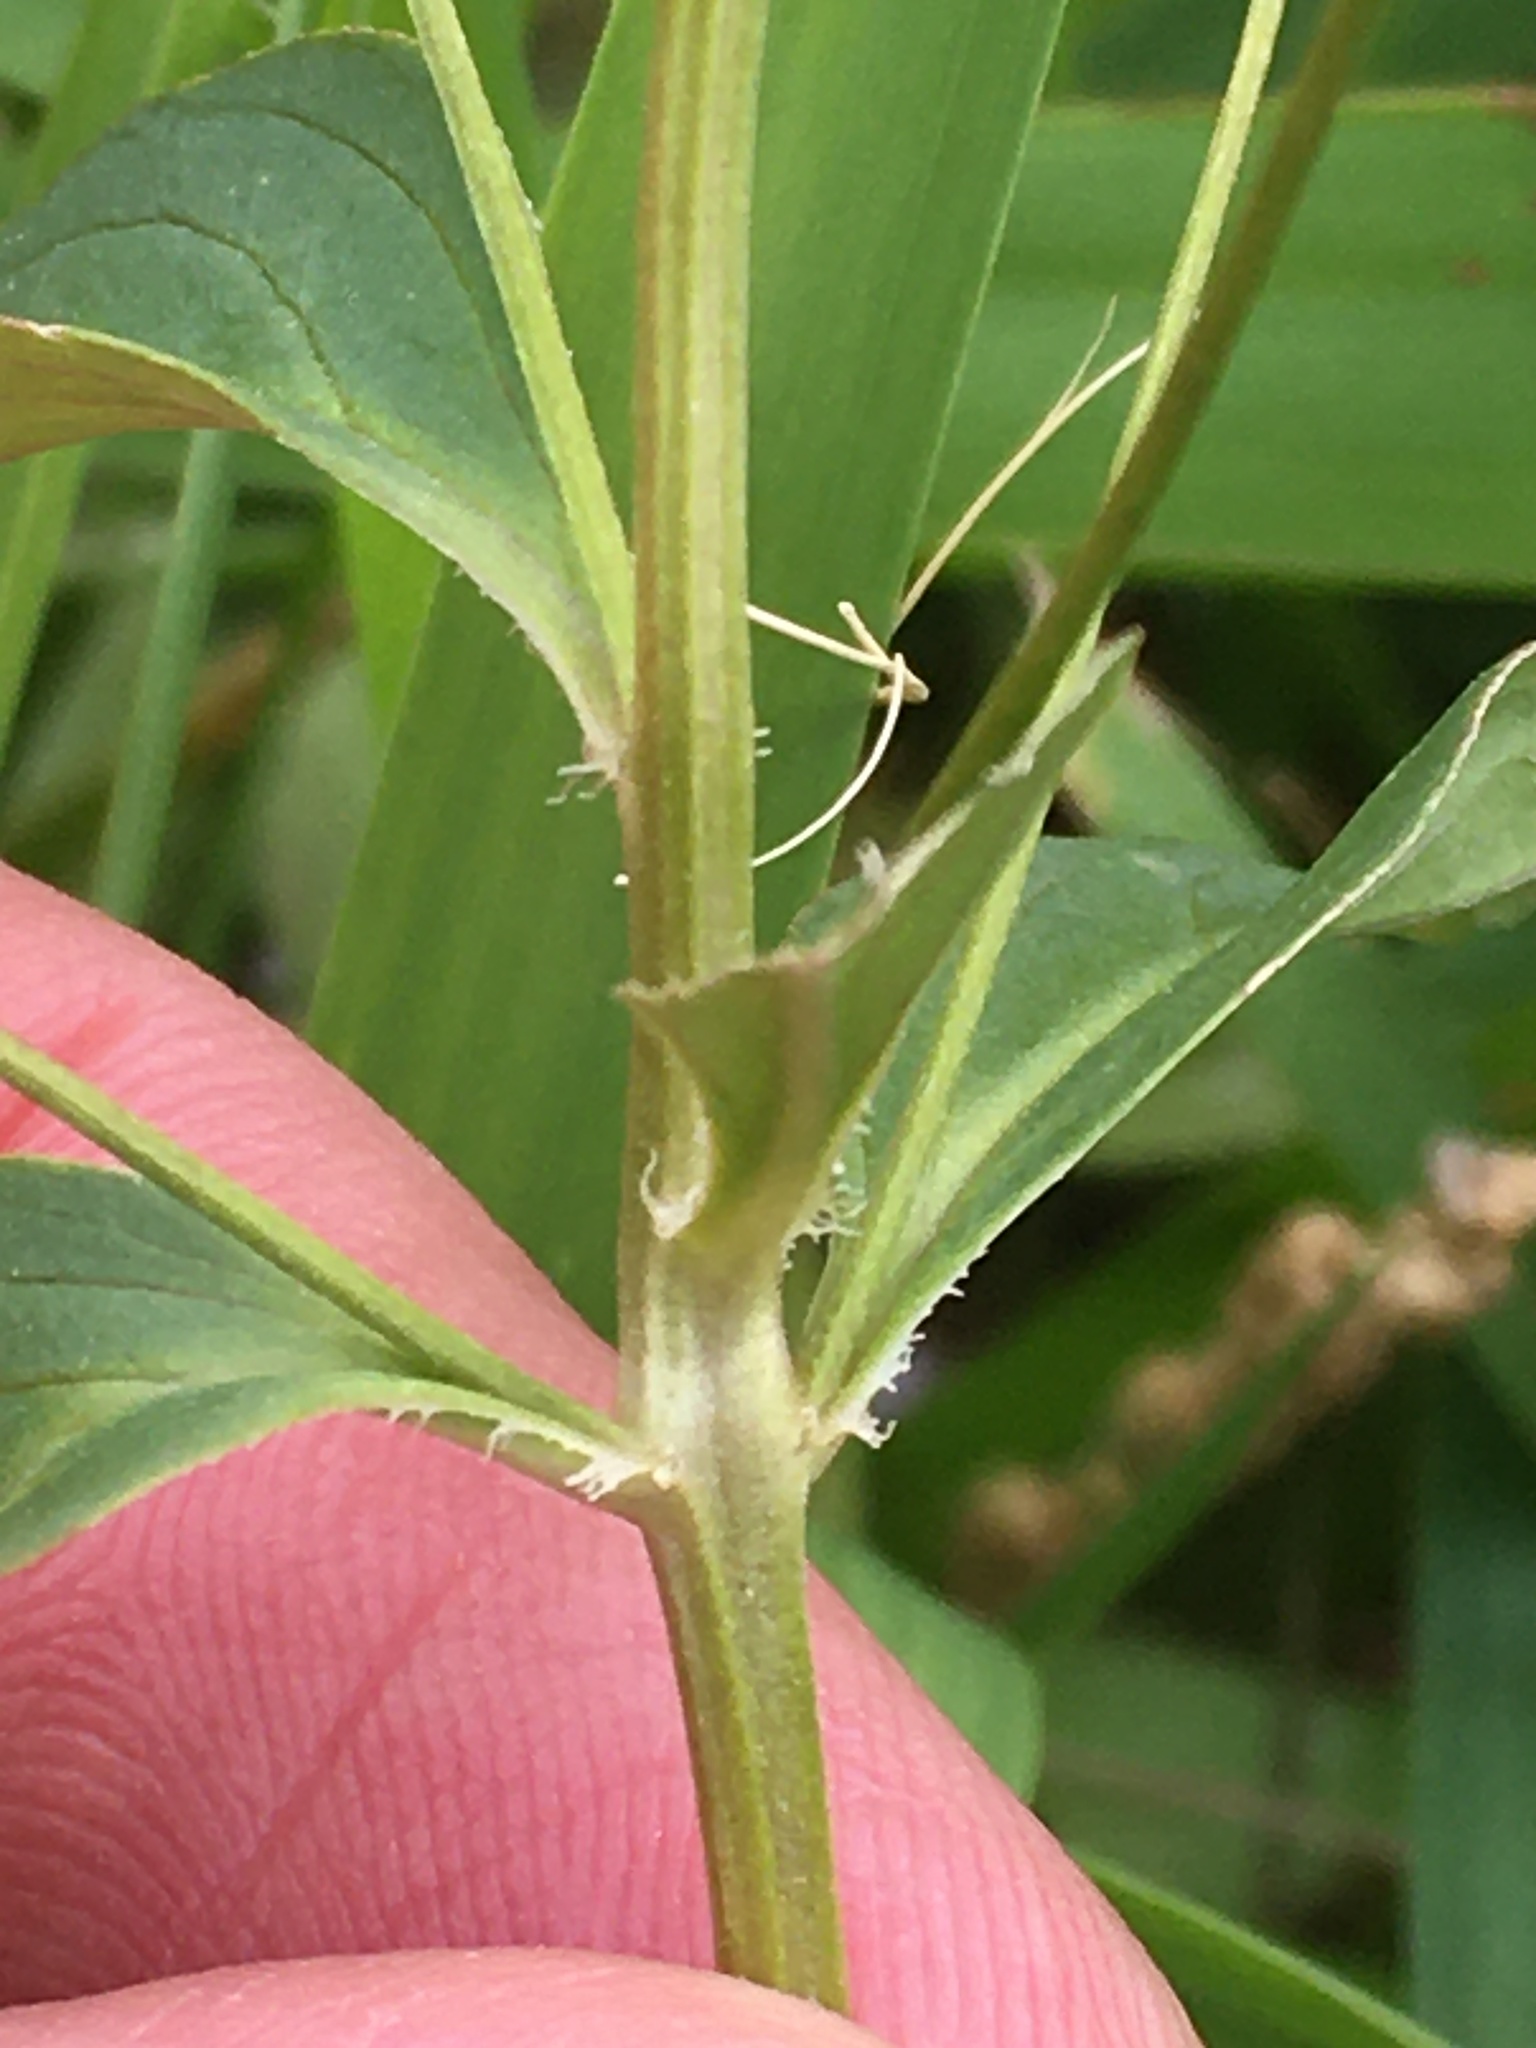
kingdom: Plantae
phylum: Tracheophyta
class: Magnoliopsida
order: Ericales
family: Primulaceae
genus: Lysimachia
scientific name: Lysimachia ciliata
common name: Fringed loosestrife
